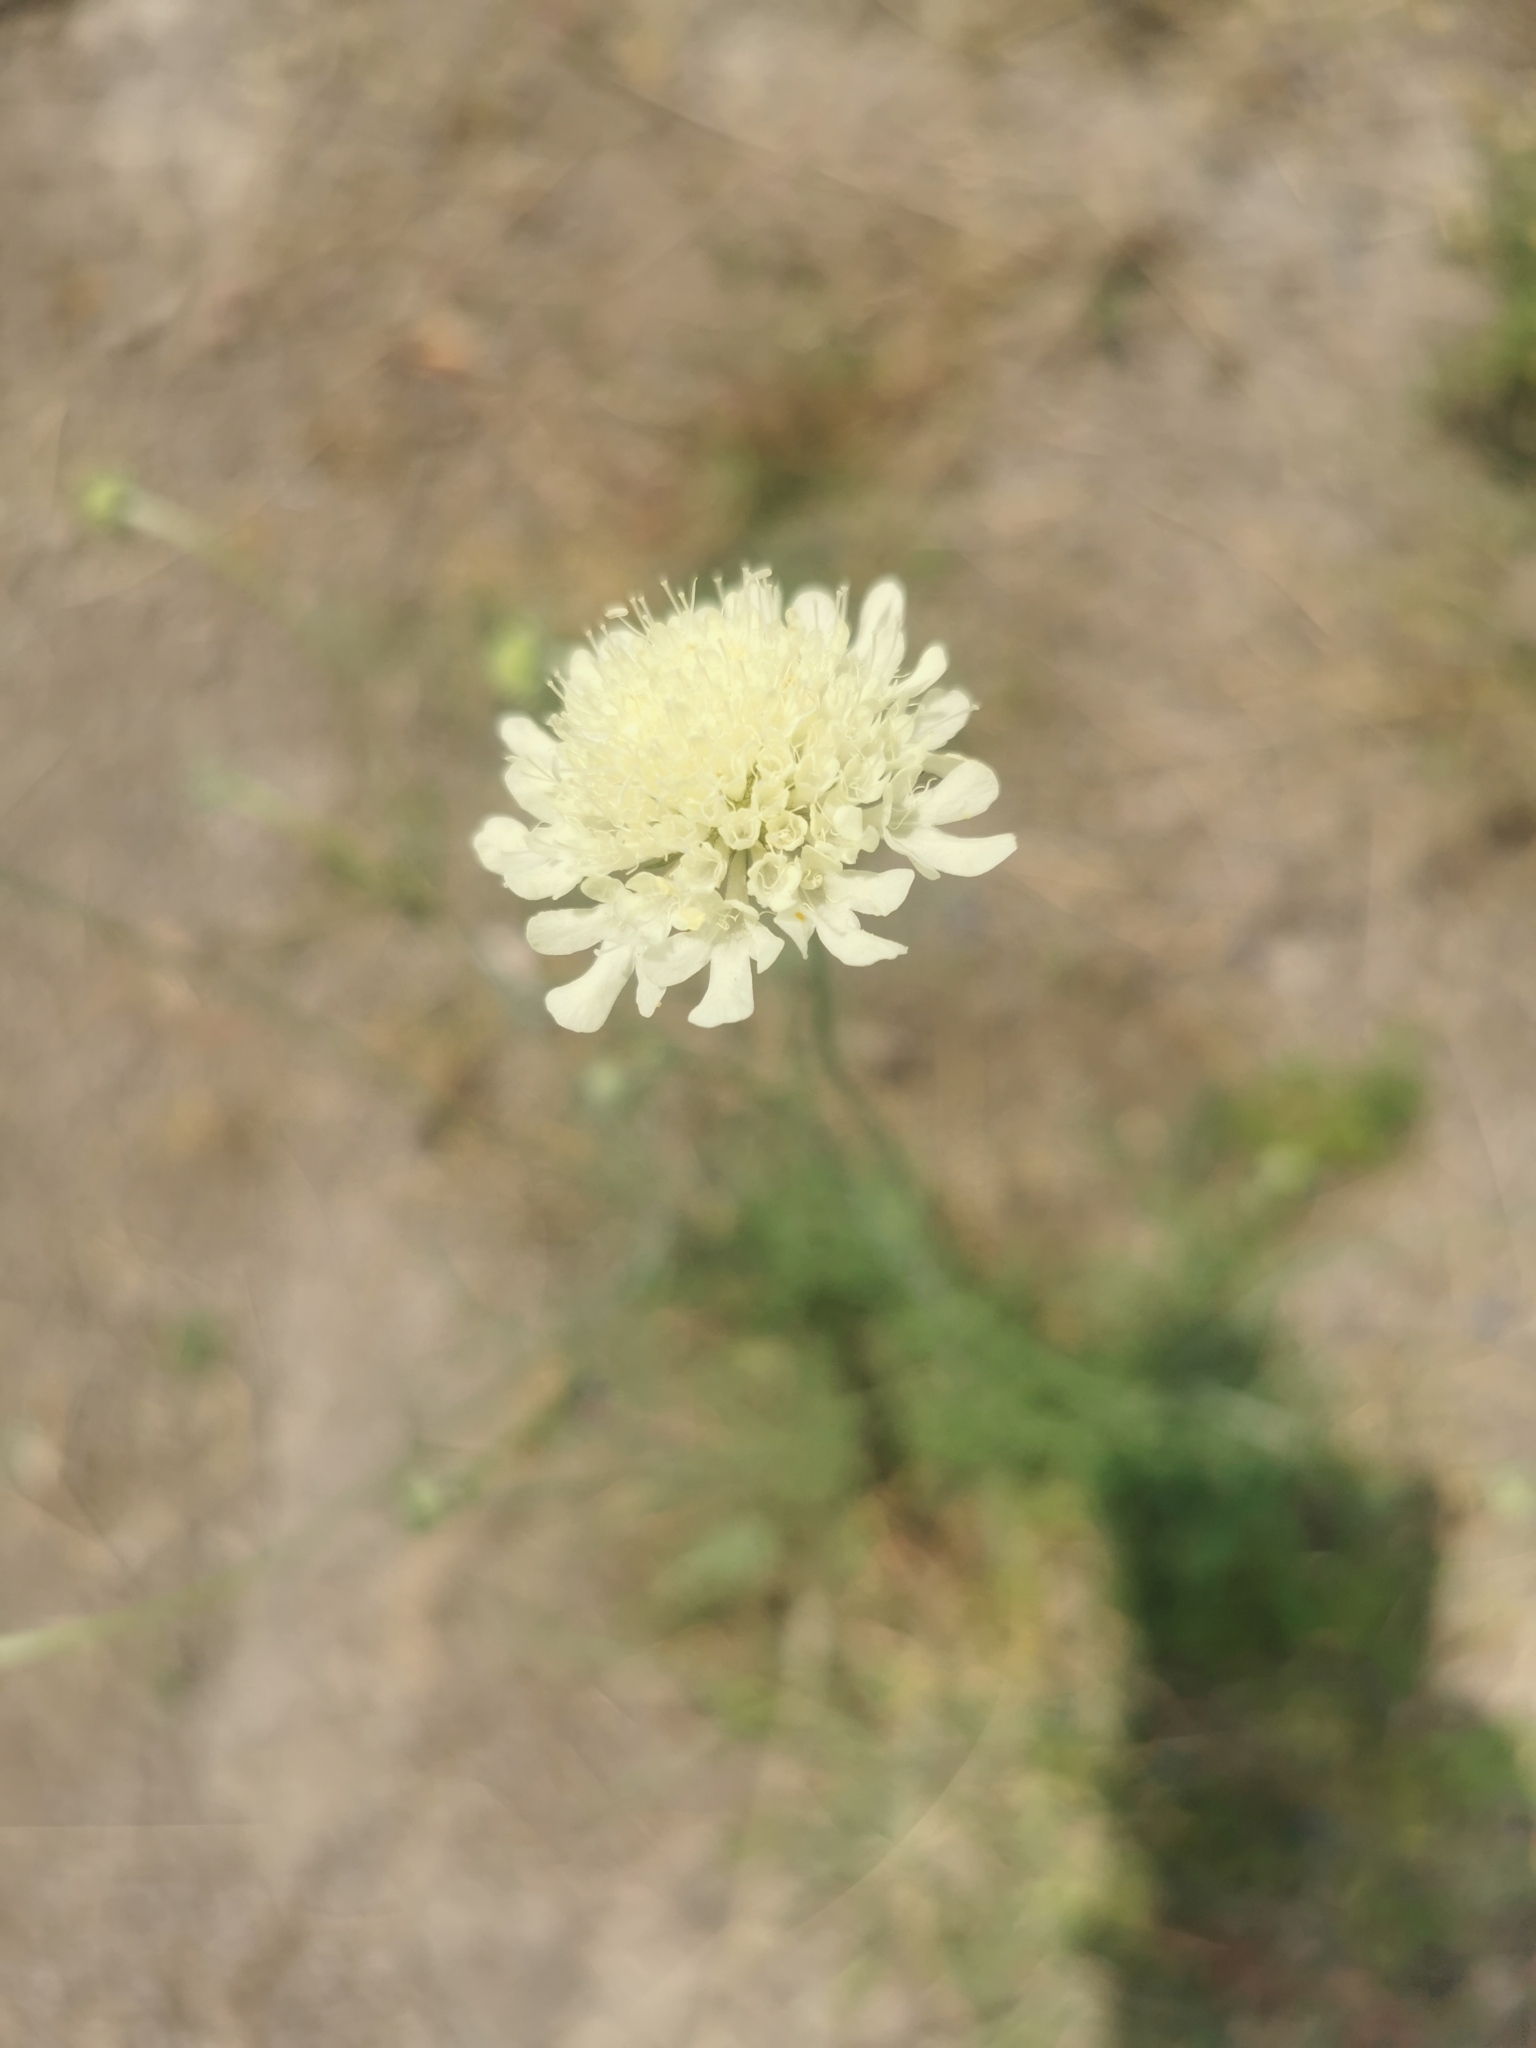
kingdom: Plantae
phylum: Tracheophyta
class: Magnoliopsida
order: Dipsacales
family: Caprifoliaceae
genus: Scabiosa
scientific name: Scabiosa ochroleuca
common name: Cream pincushions
